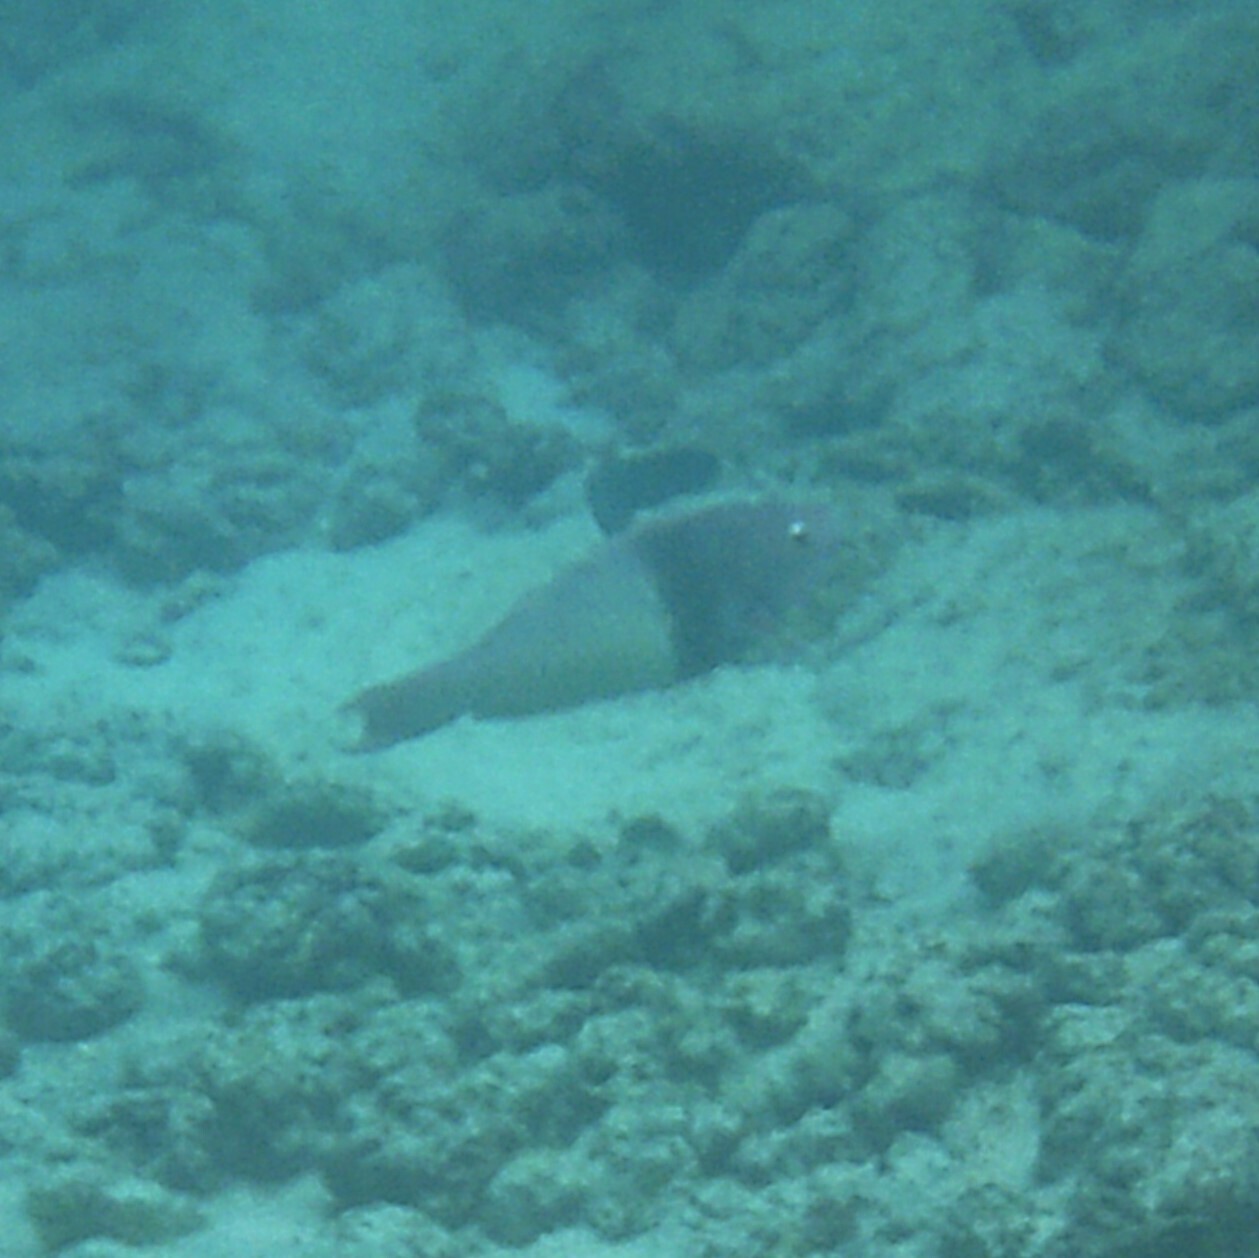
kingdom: Animalia
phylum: Chordata
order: Perciformes
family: Scaridae
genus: Scarus
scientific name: Scarus rubroviolaceus
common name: Ember parrotfish
